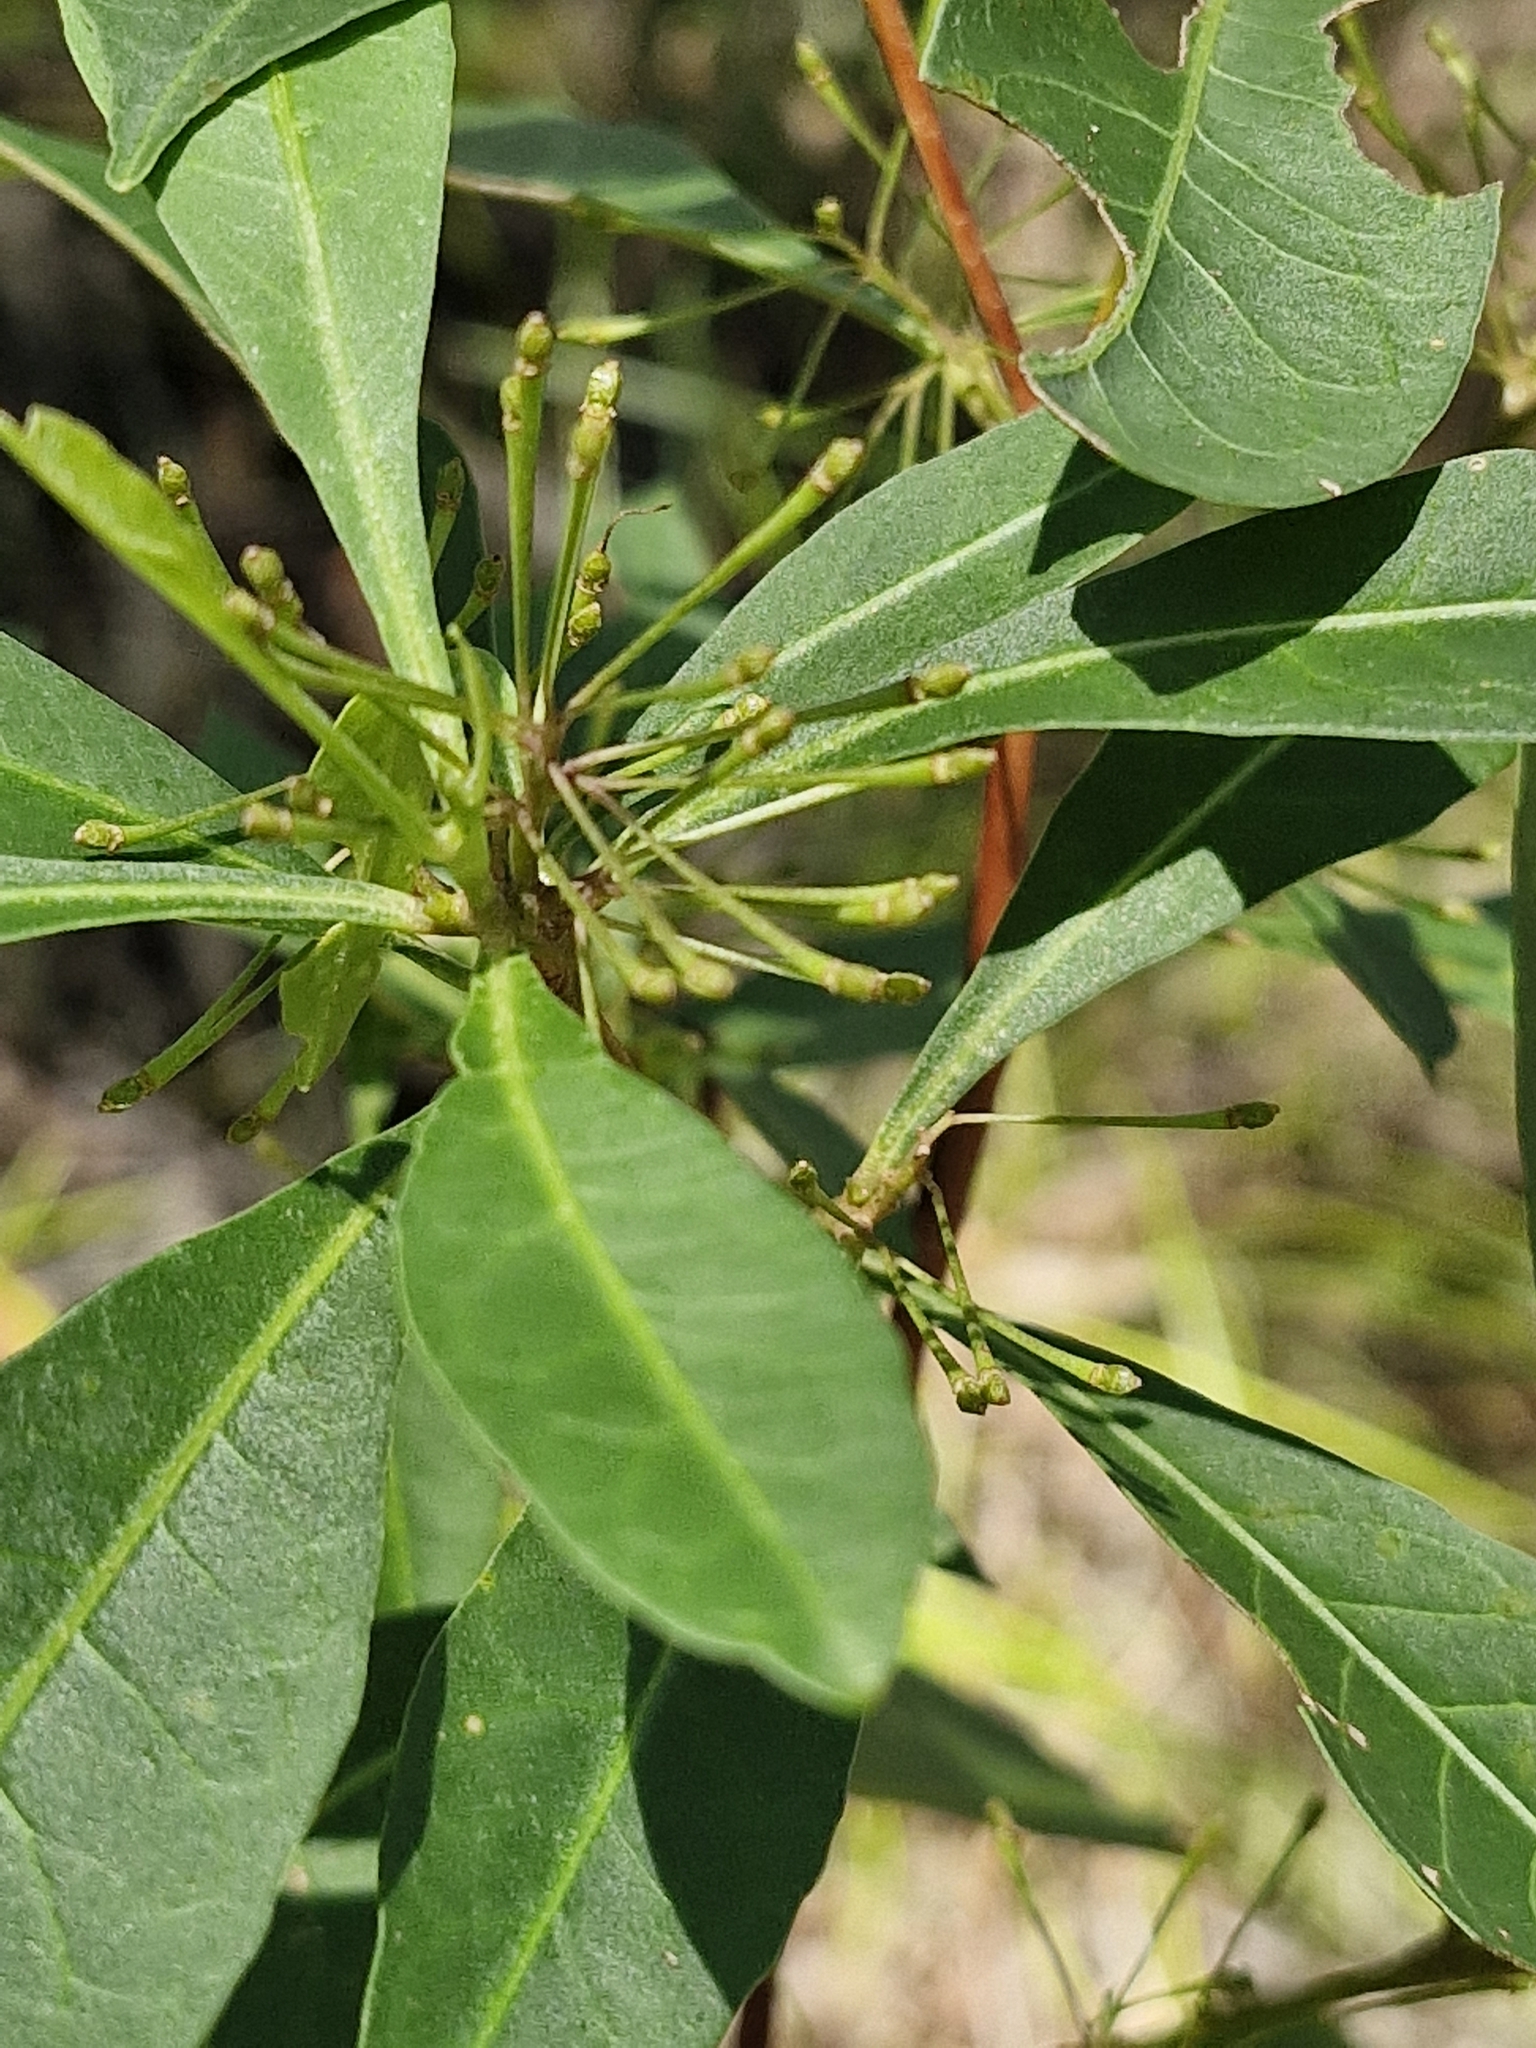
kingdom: Plantae
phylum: Tracheophyta
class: Magnoliopsida
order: Sapindales
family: Sapindaceae
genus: Dodonaea
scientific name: Dodonaea triquetra
